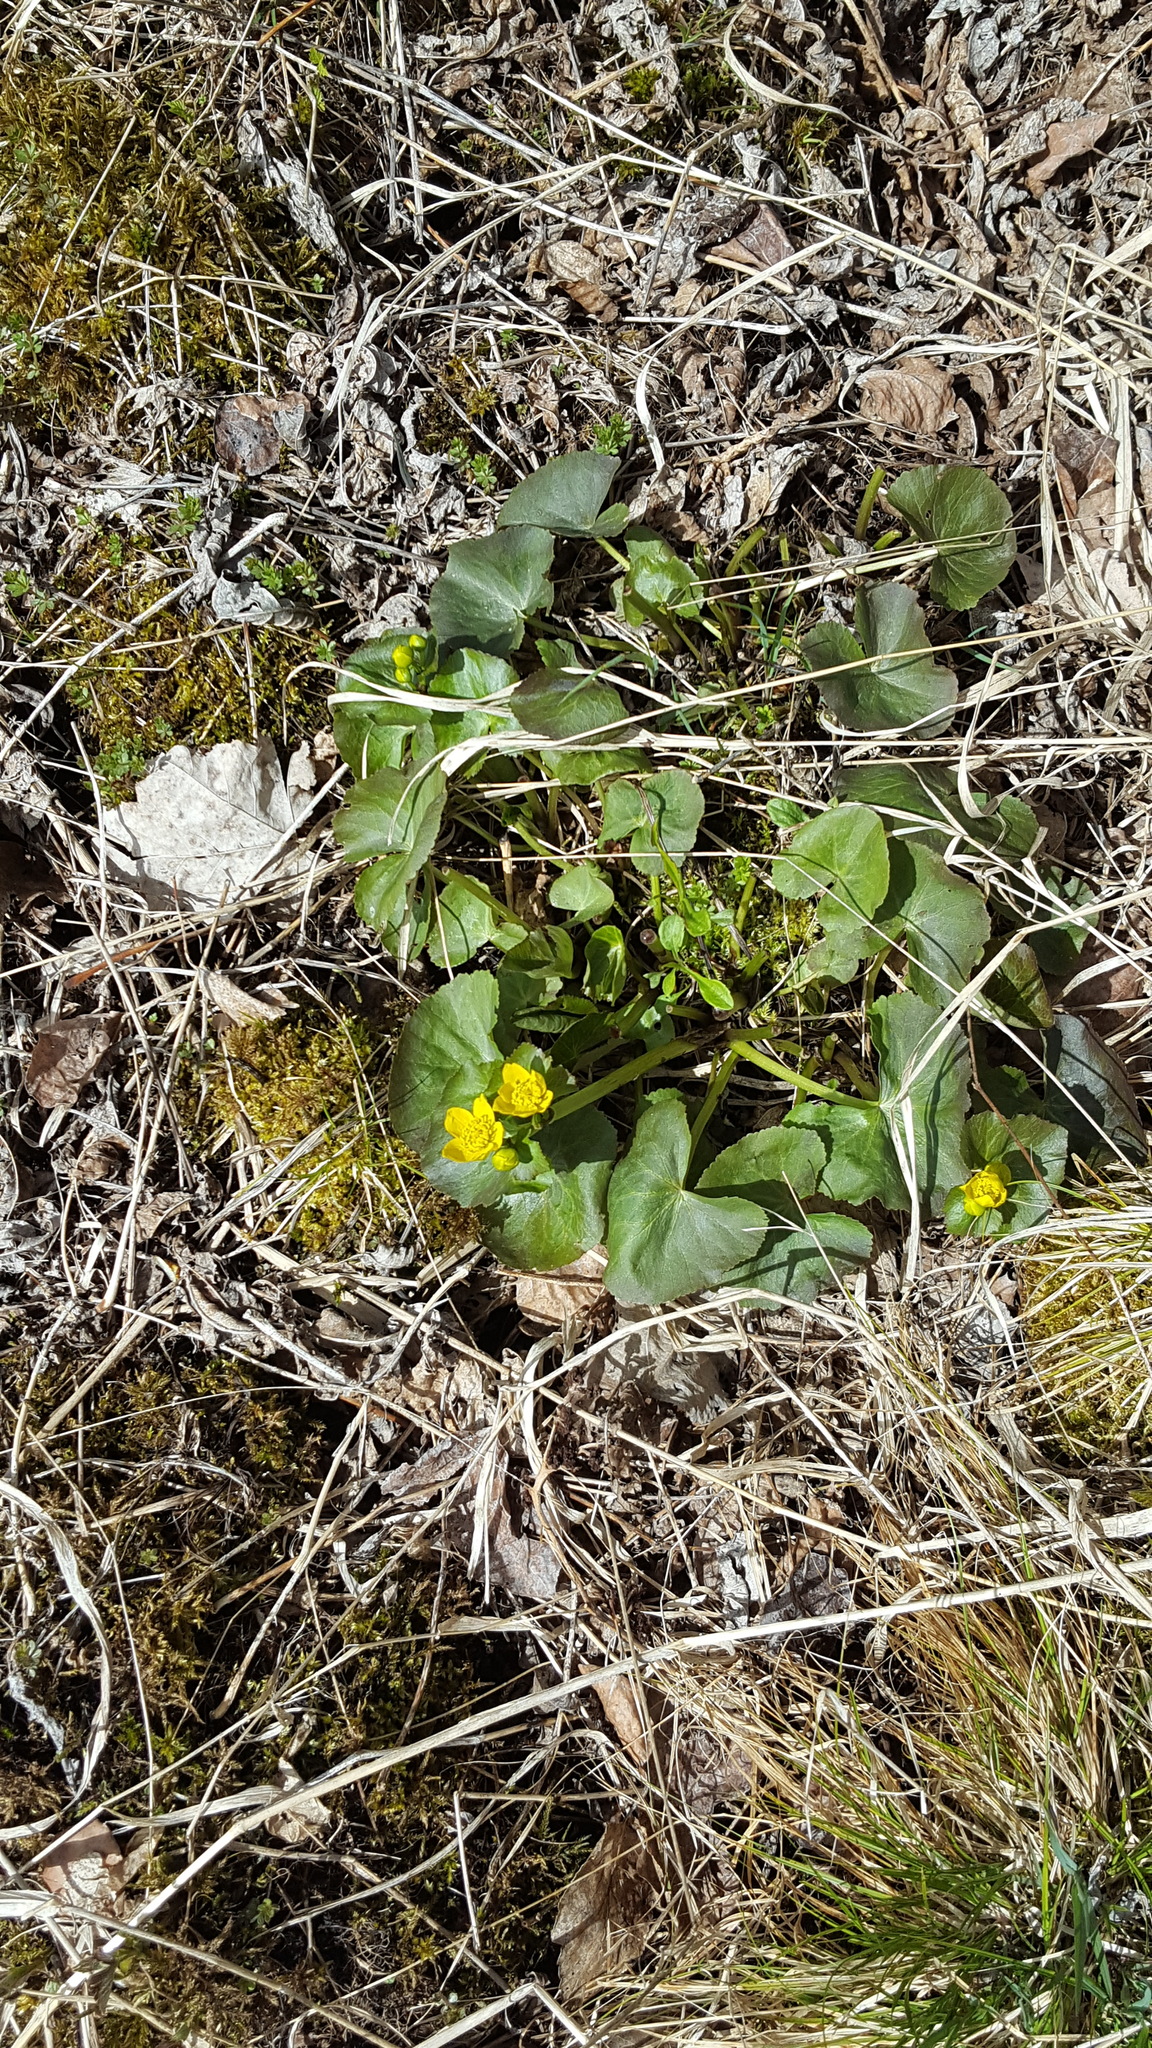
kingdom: Plantae
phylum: Tracheophyta
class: Magnoliopsida
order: Ranunculales
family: Ranunculaceae
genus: Caltha
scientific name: Caltha palustris
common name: Marsh marigold
